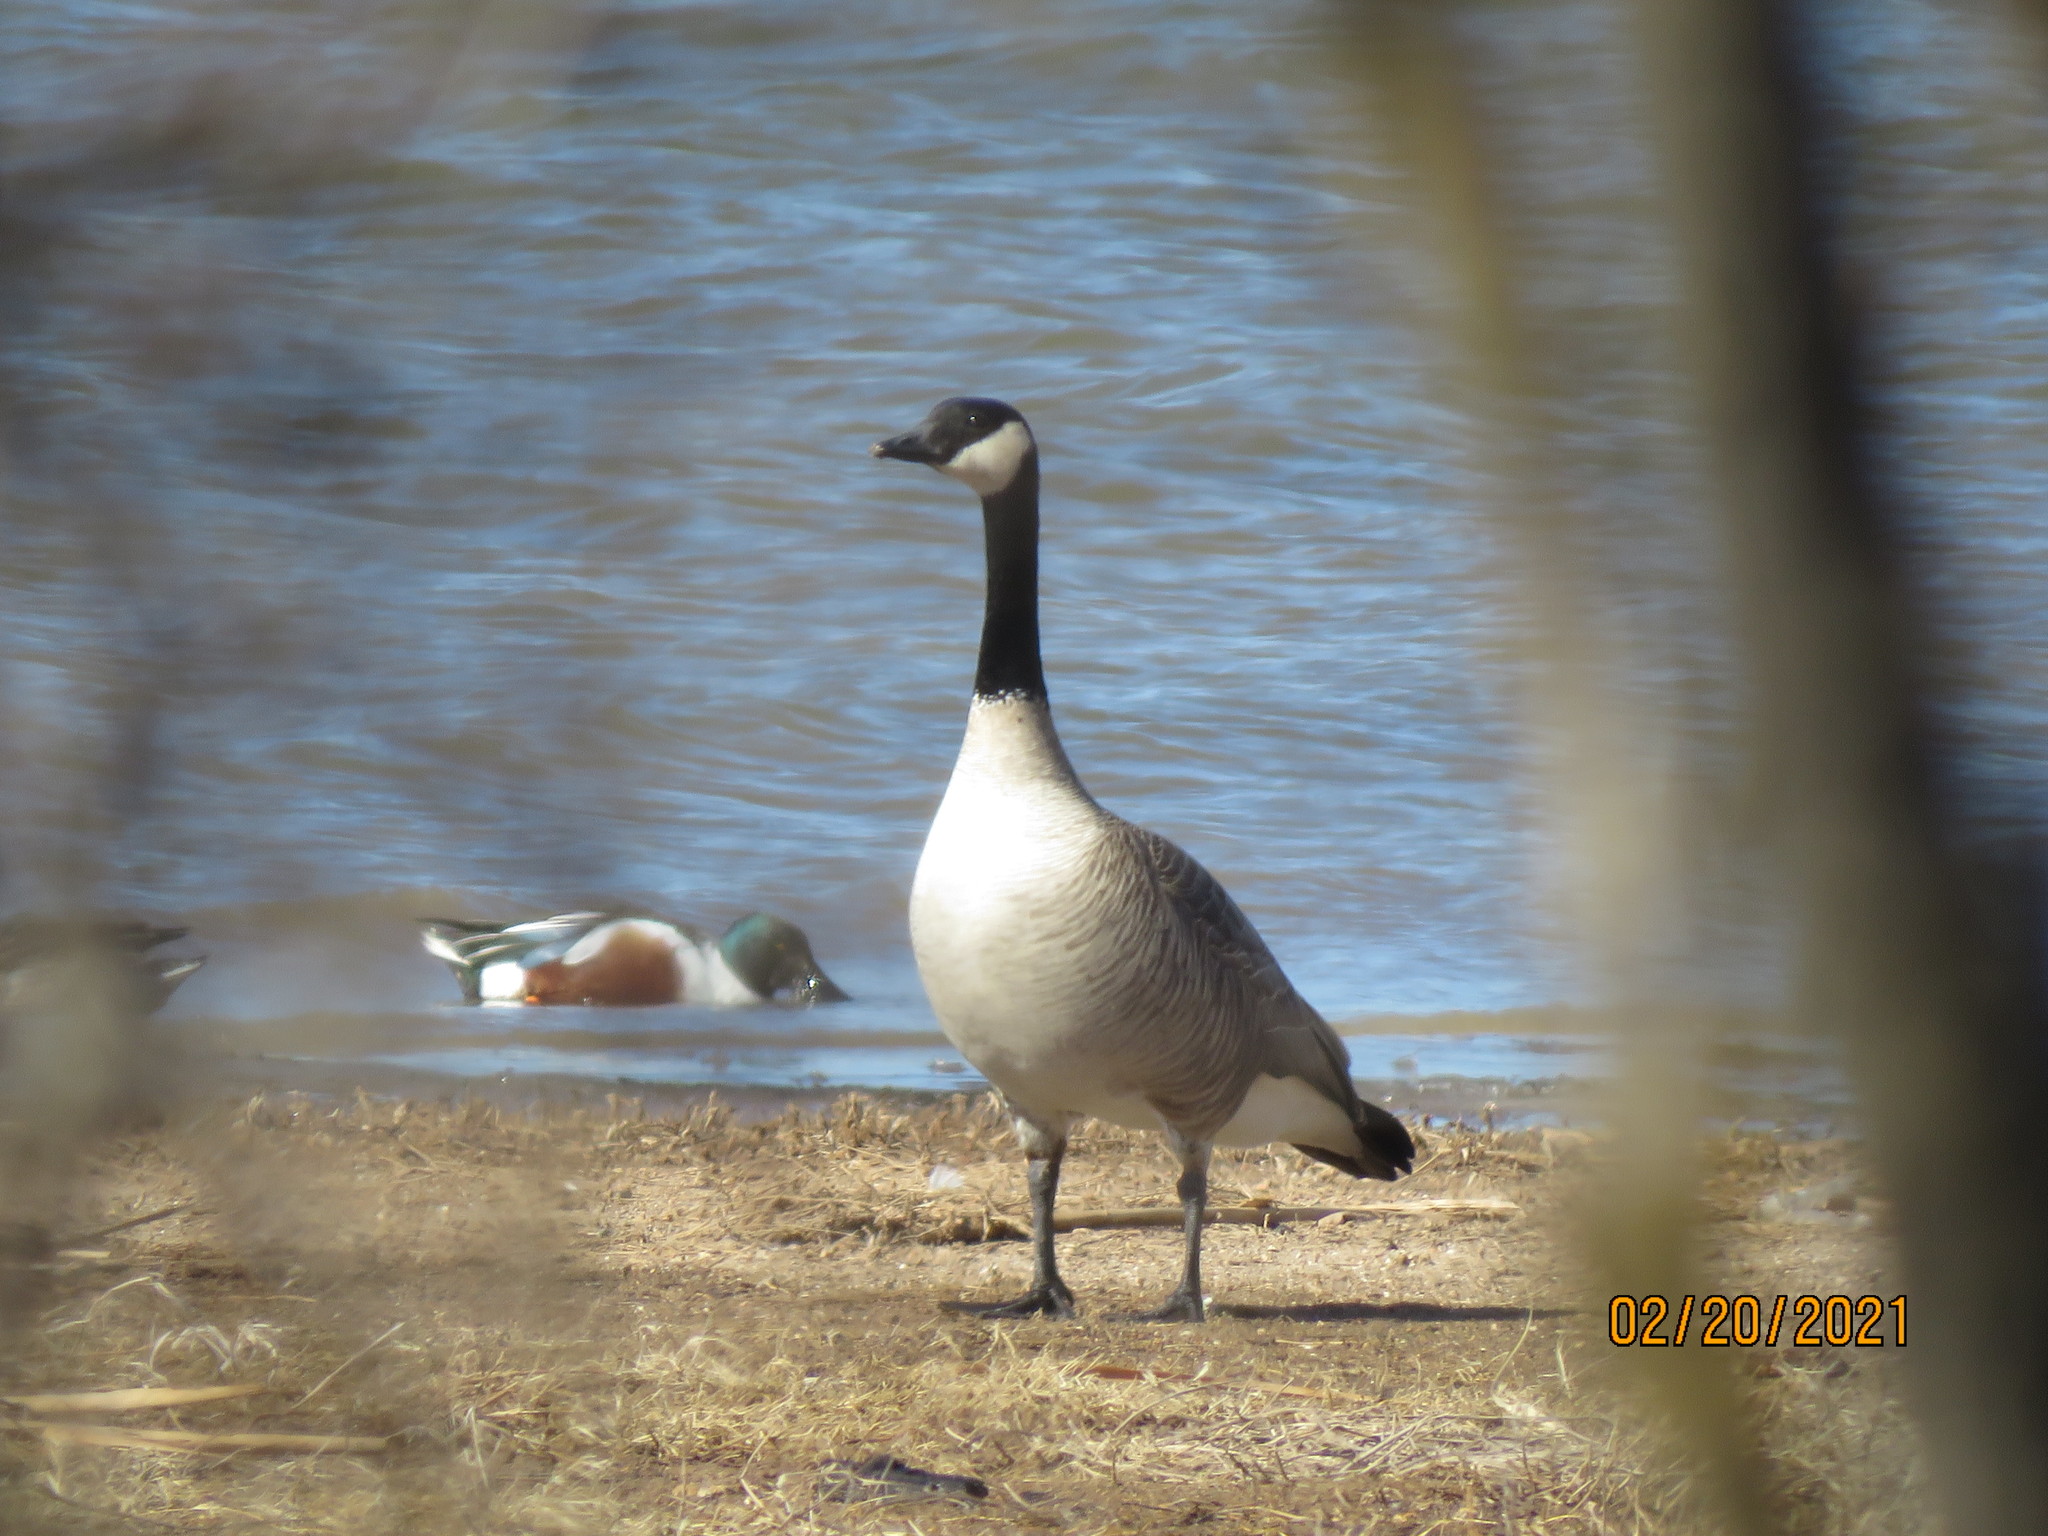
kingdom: Animalia
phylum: Chordata
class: Aves
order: Anseriformes
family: Anatidae
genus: Branta
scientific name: Branta canadensis
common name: Canada goose
